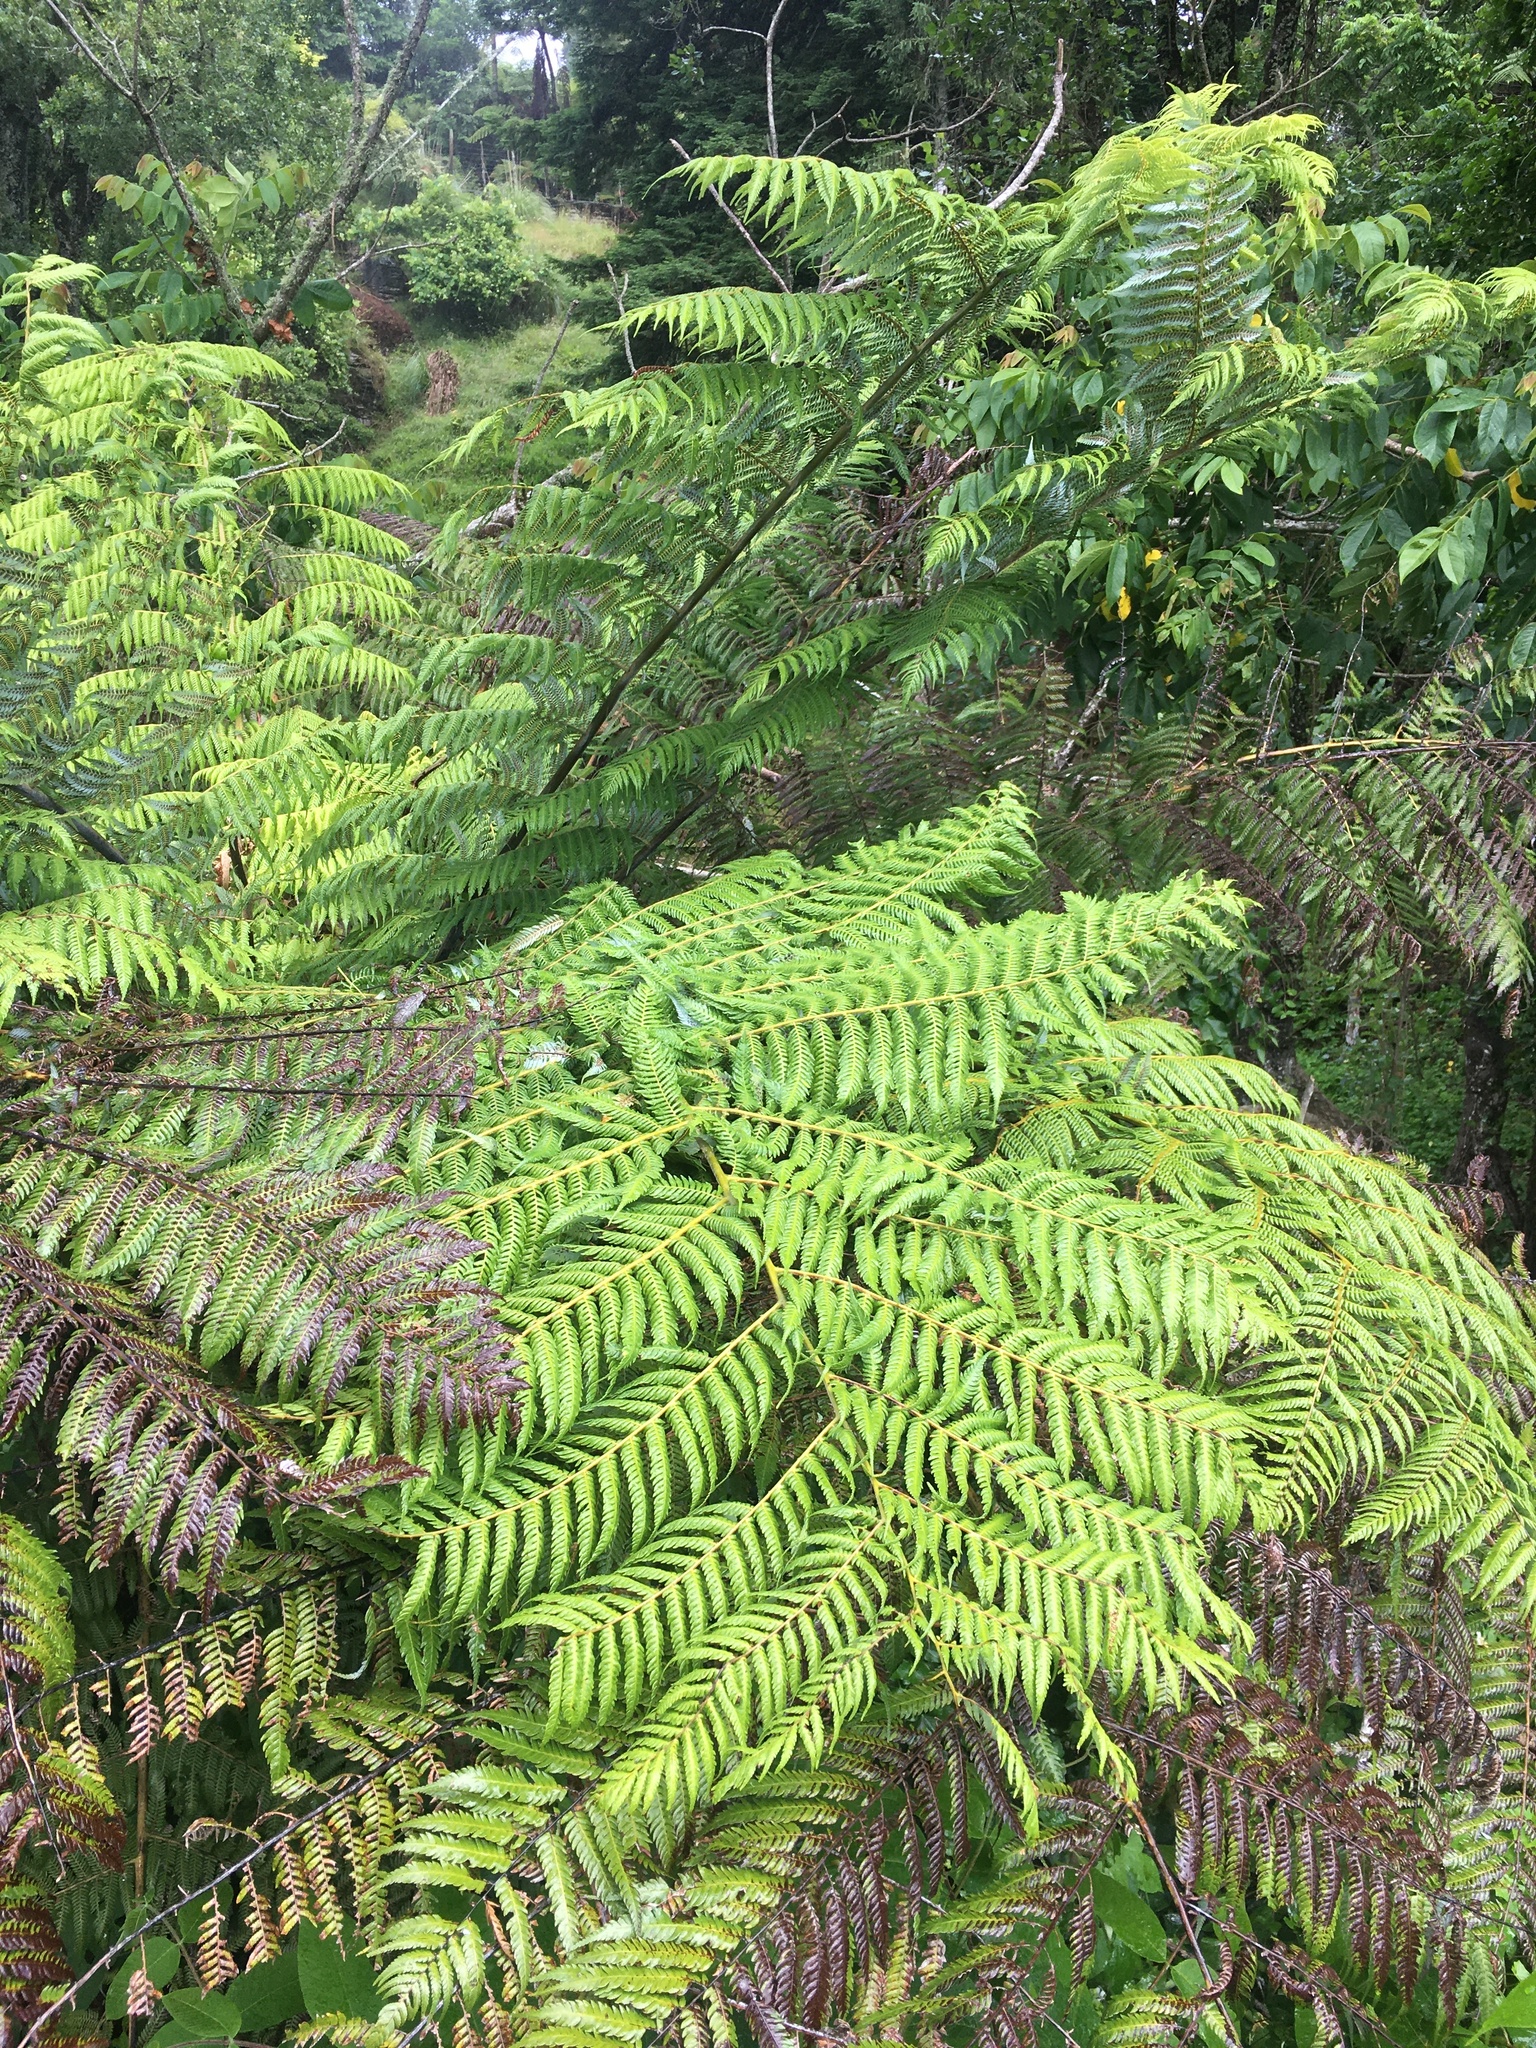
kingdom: Plantae
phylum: Tracheophyta
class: Polypodiopsida
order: Cyatheales
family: Cyatheaceae
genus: Alsophila
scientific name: Alsophila dealbata
